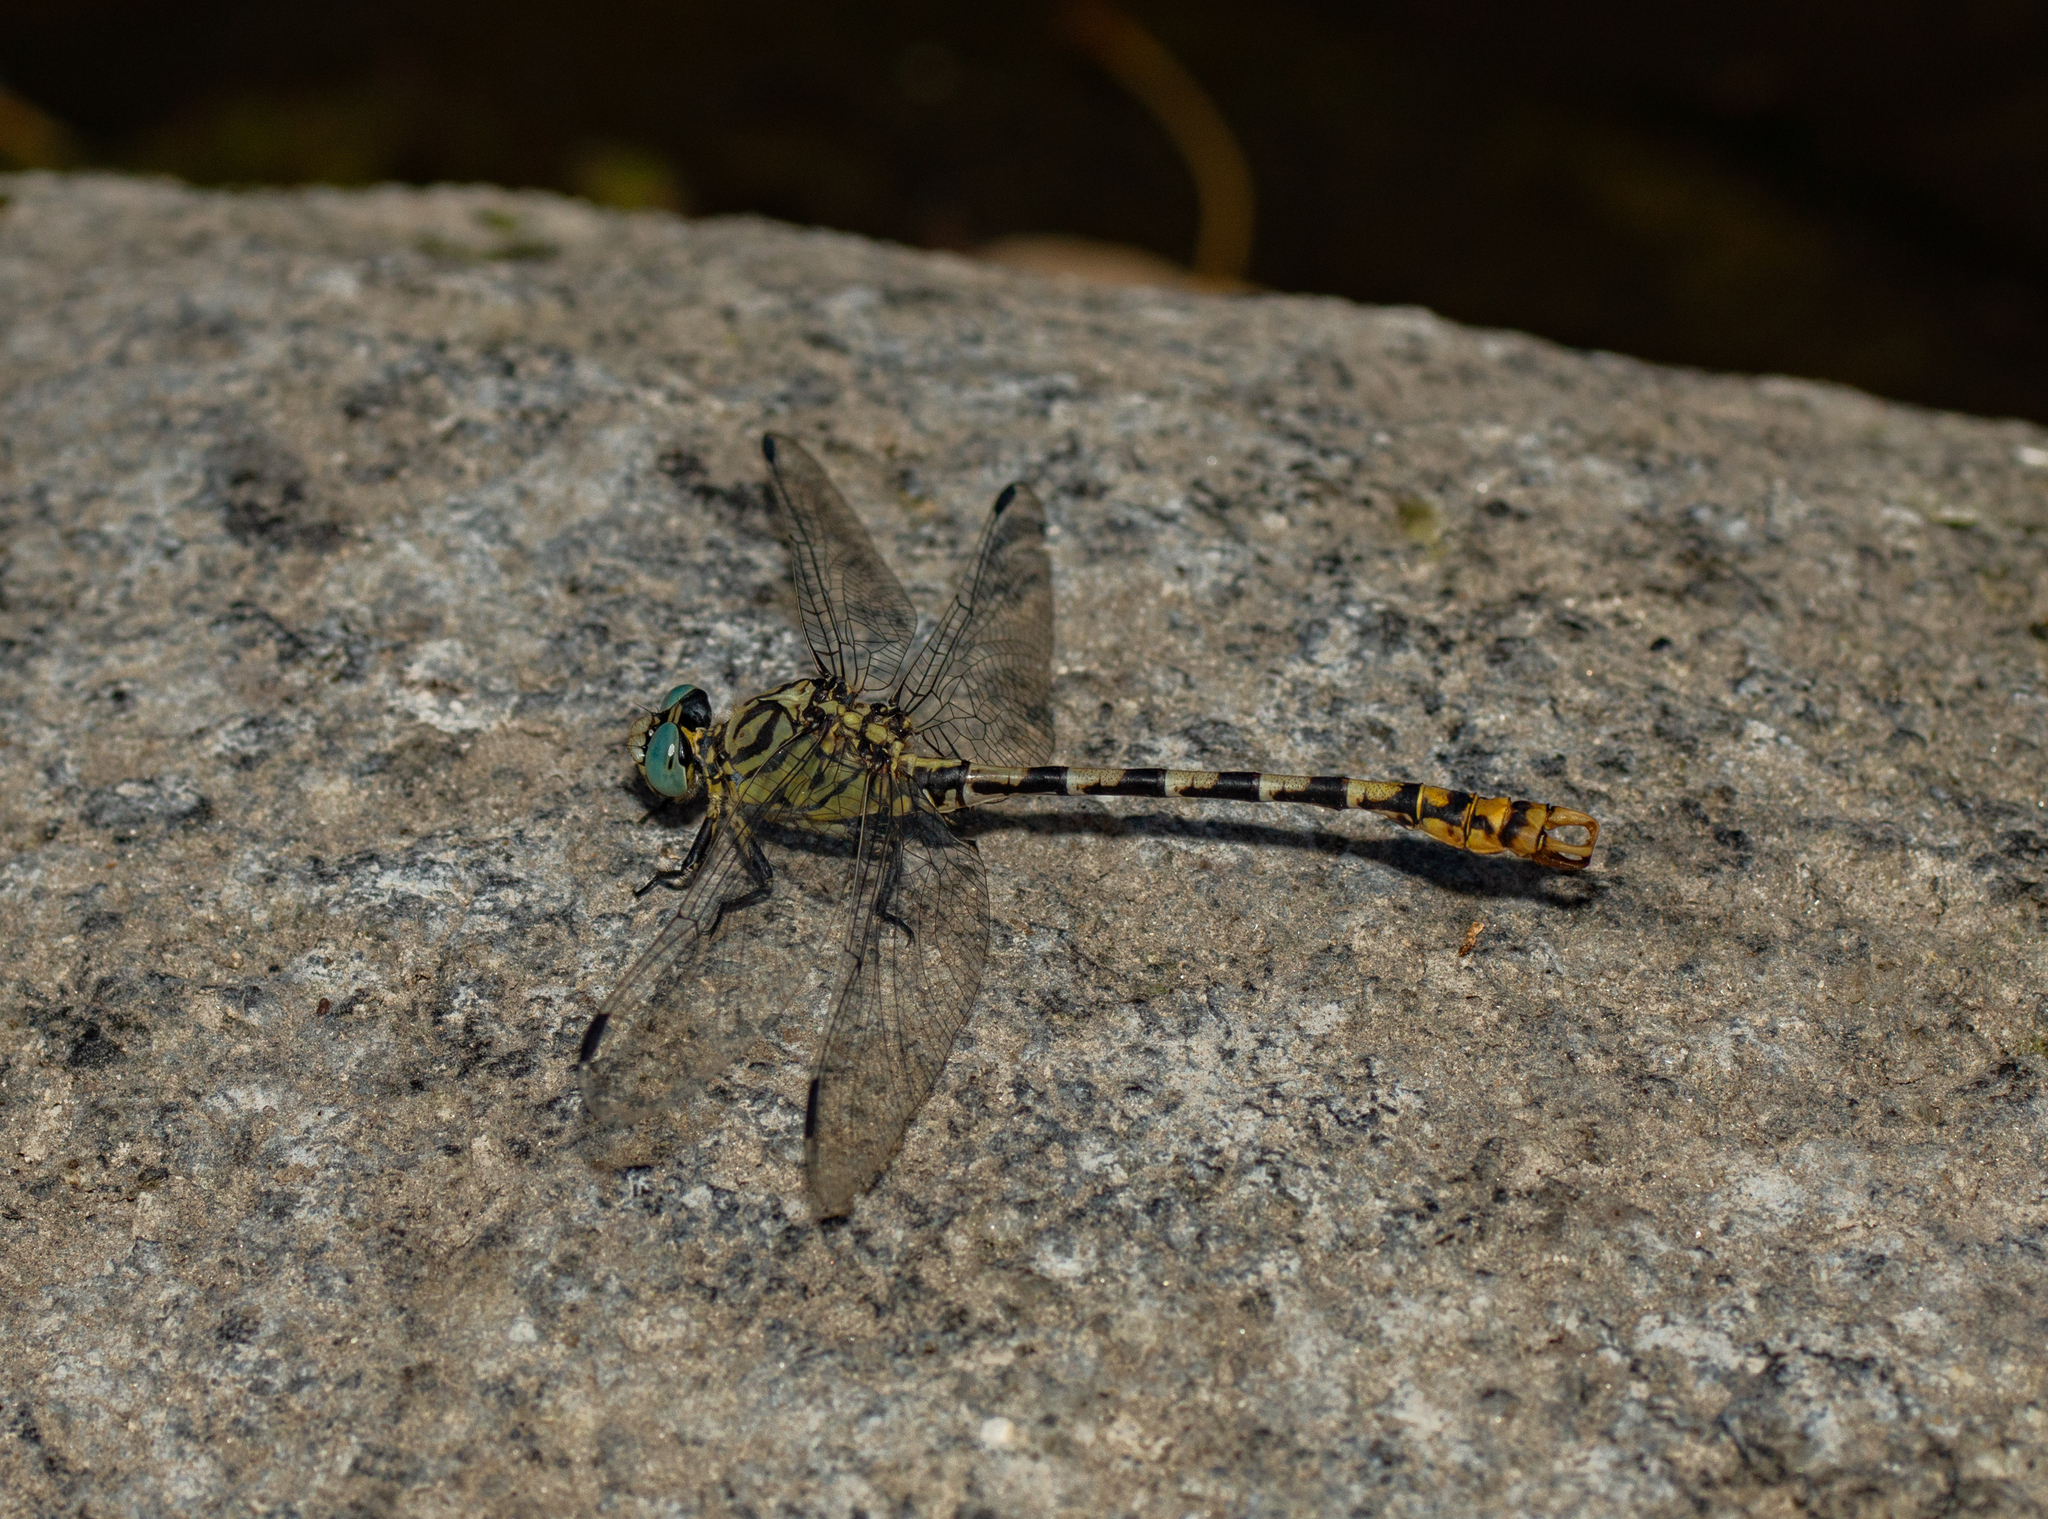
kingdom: Animalia
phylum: Arthropoda
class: Insecta
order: Odonata
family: Gomphidae
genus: Onychogomphus
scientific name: Onychogomphus forcipatus
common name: Small pincertail
